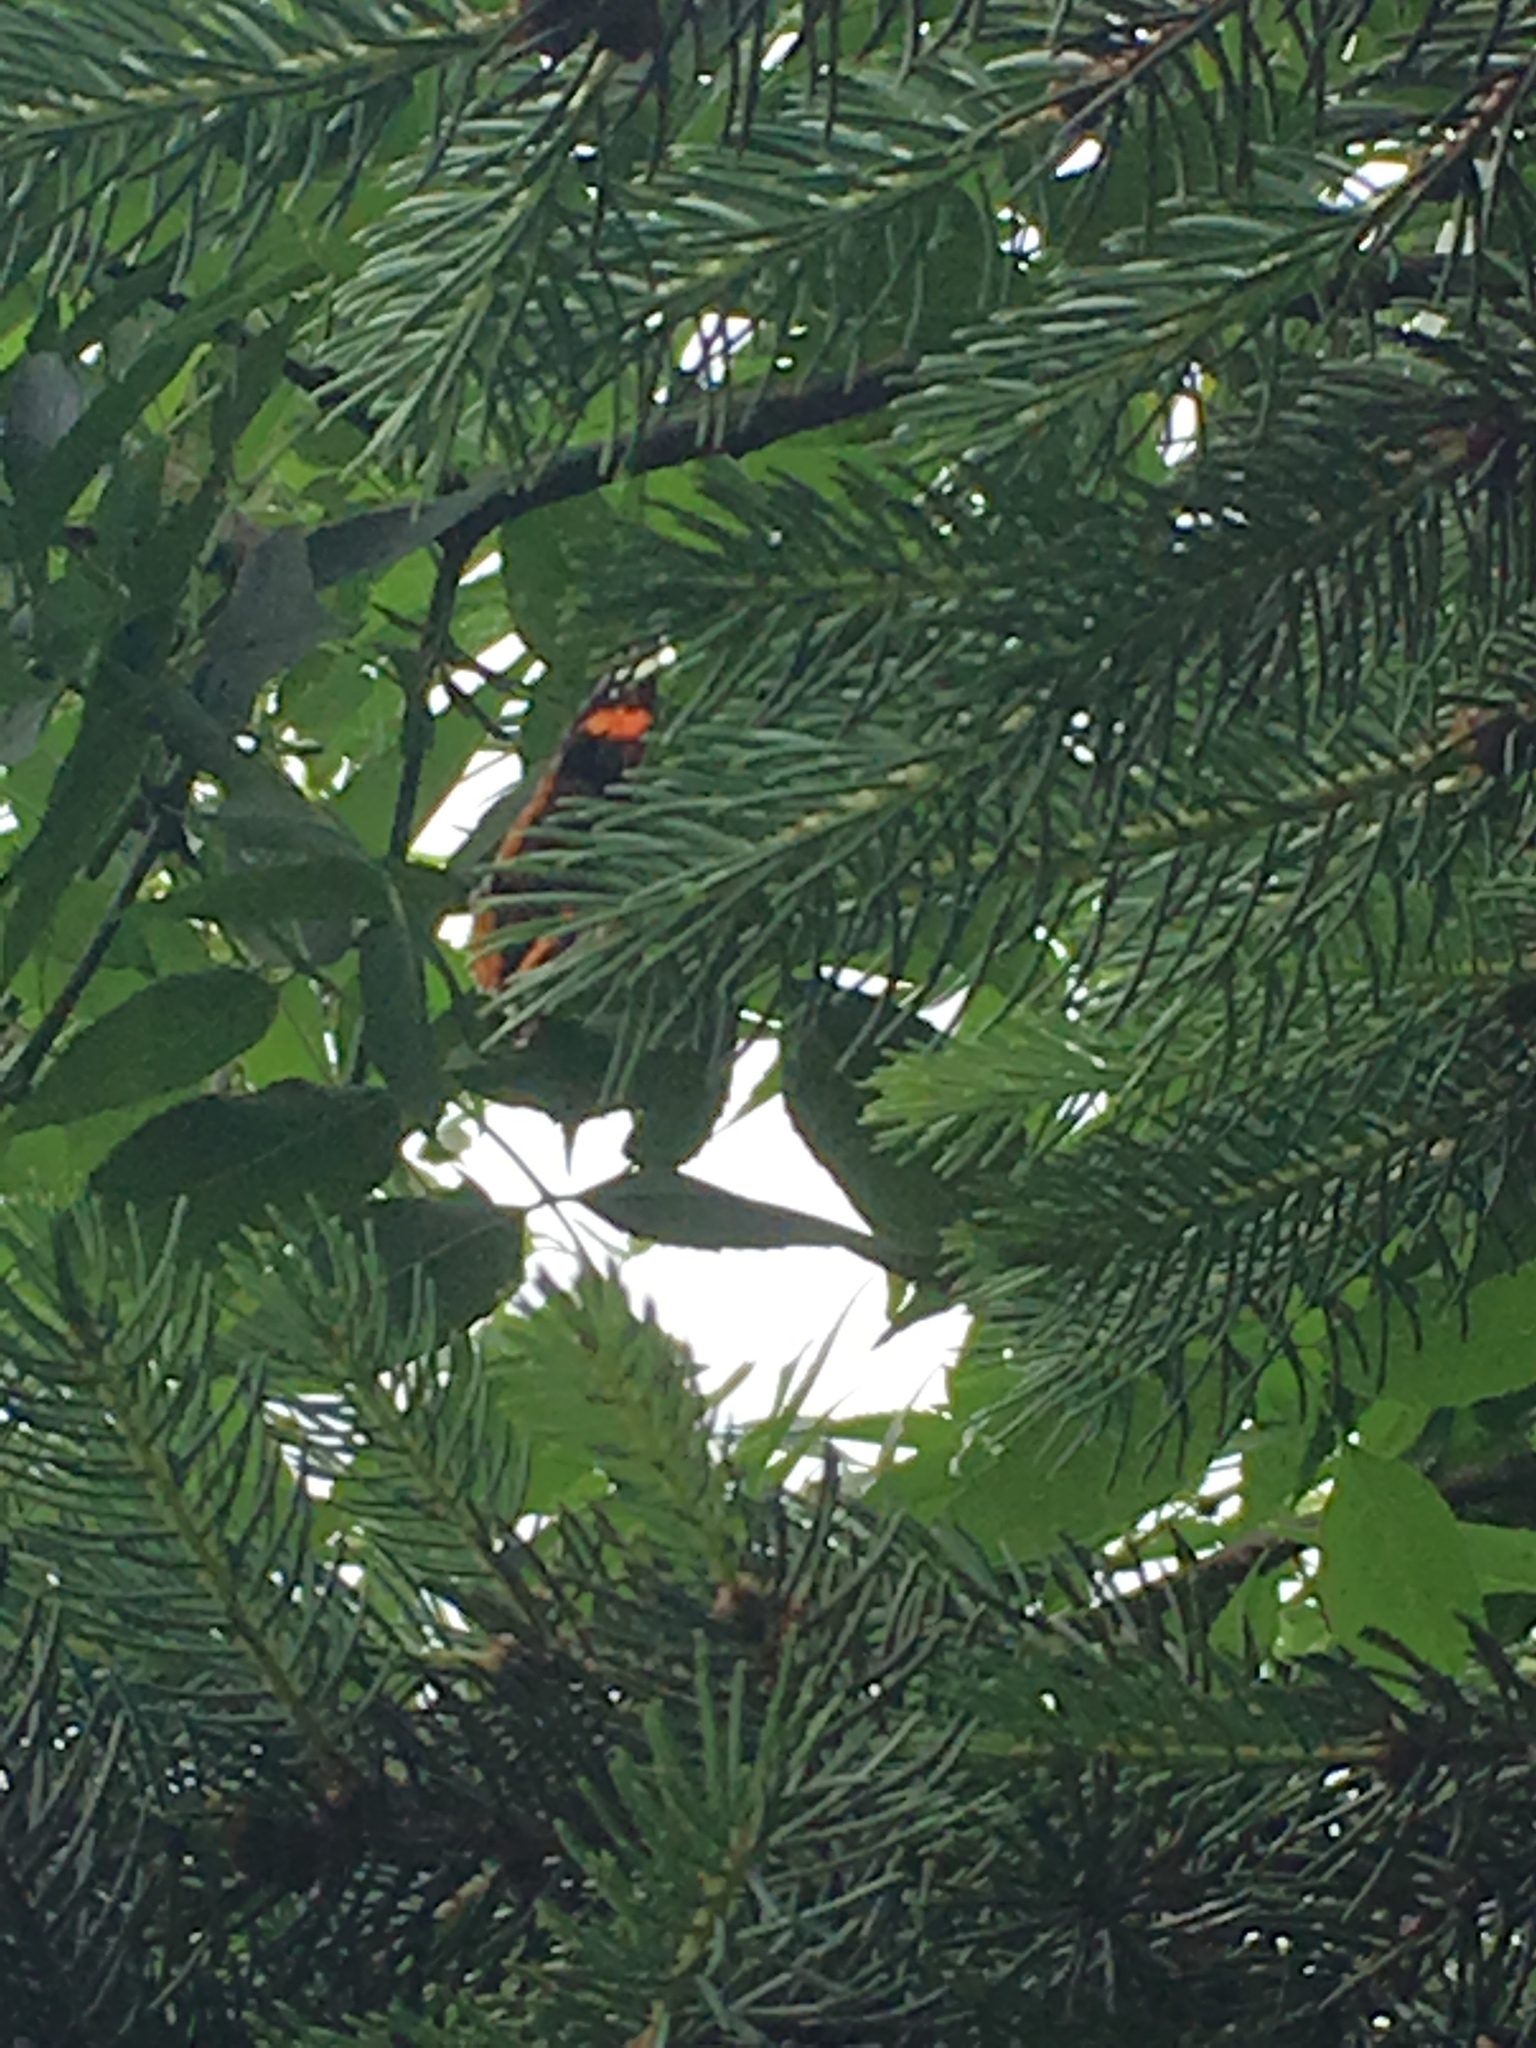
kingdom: Animalia
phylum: Arthropoda
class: Insecta
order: Lepidoptera
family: Nymphalidae
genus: Vanessa
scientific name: Vanessa atalanta
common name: Red admiral
